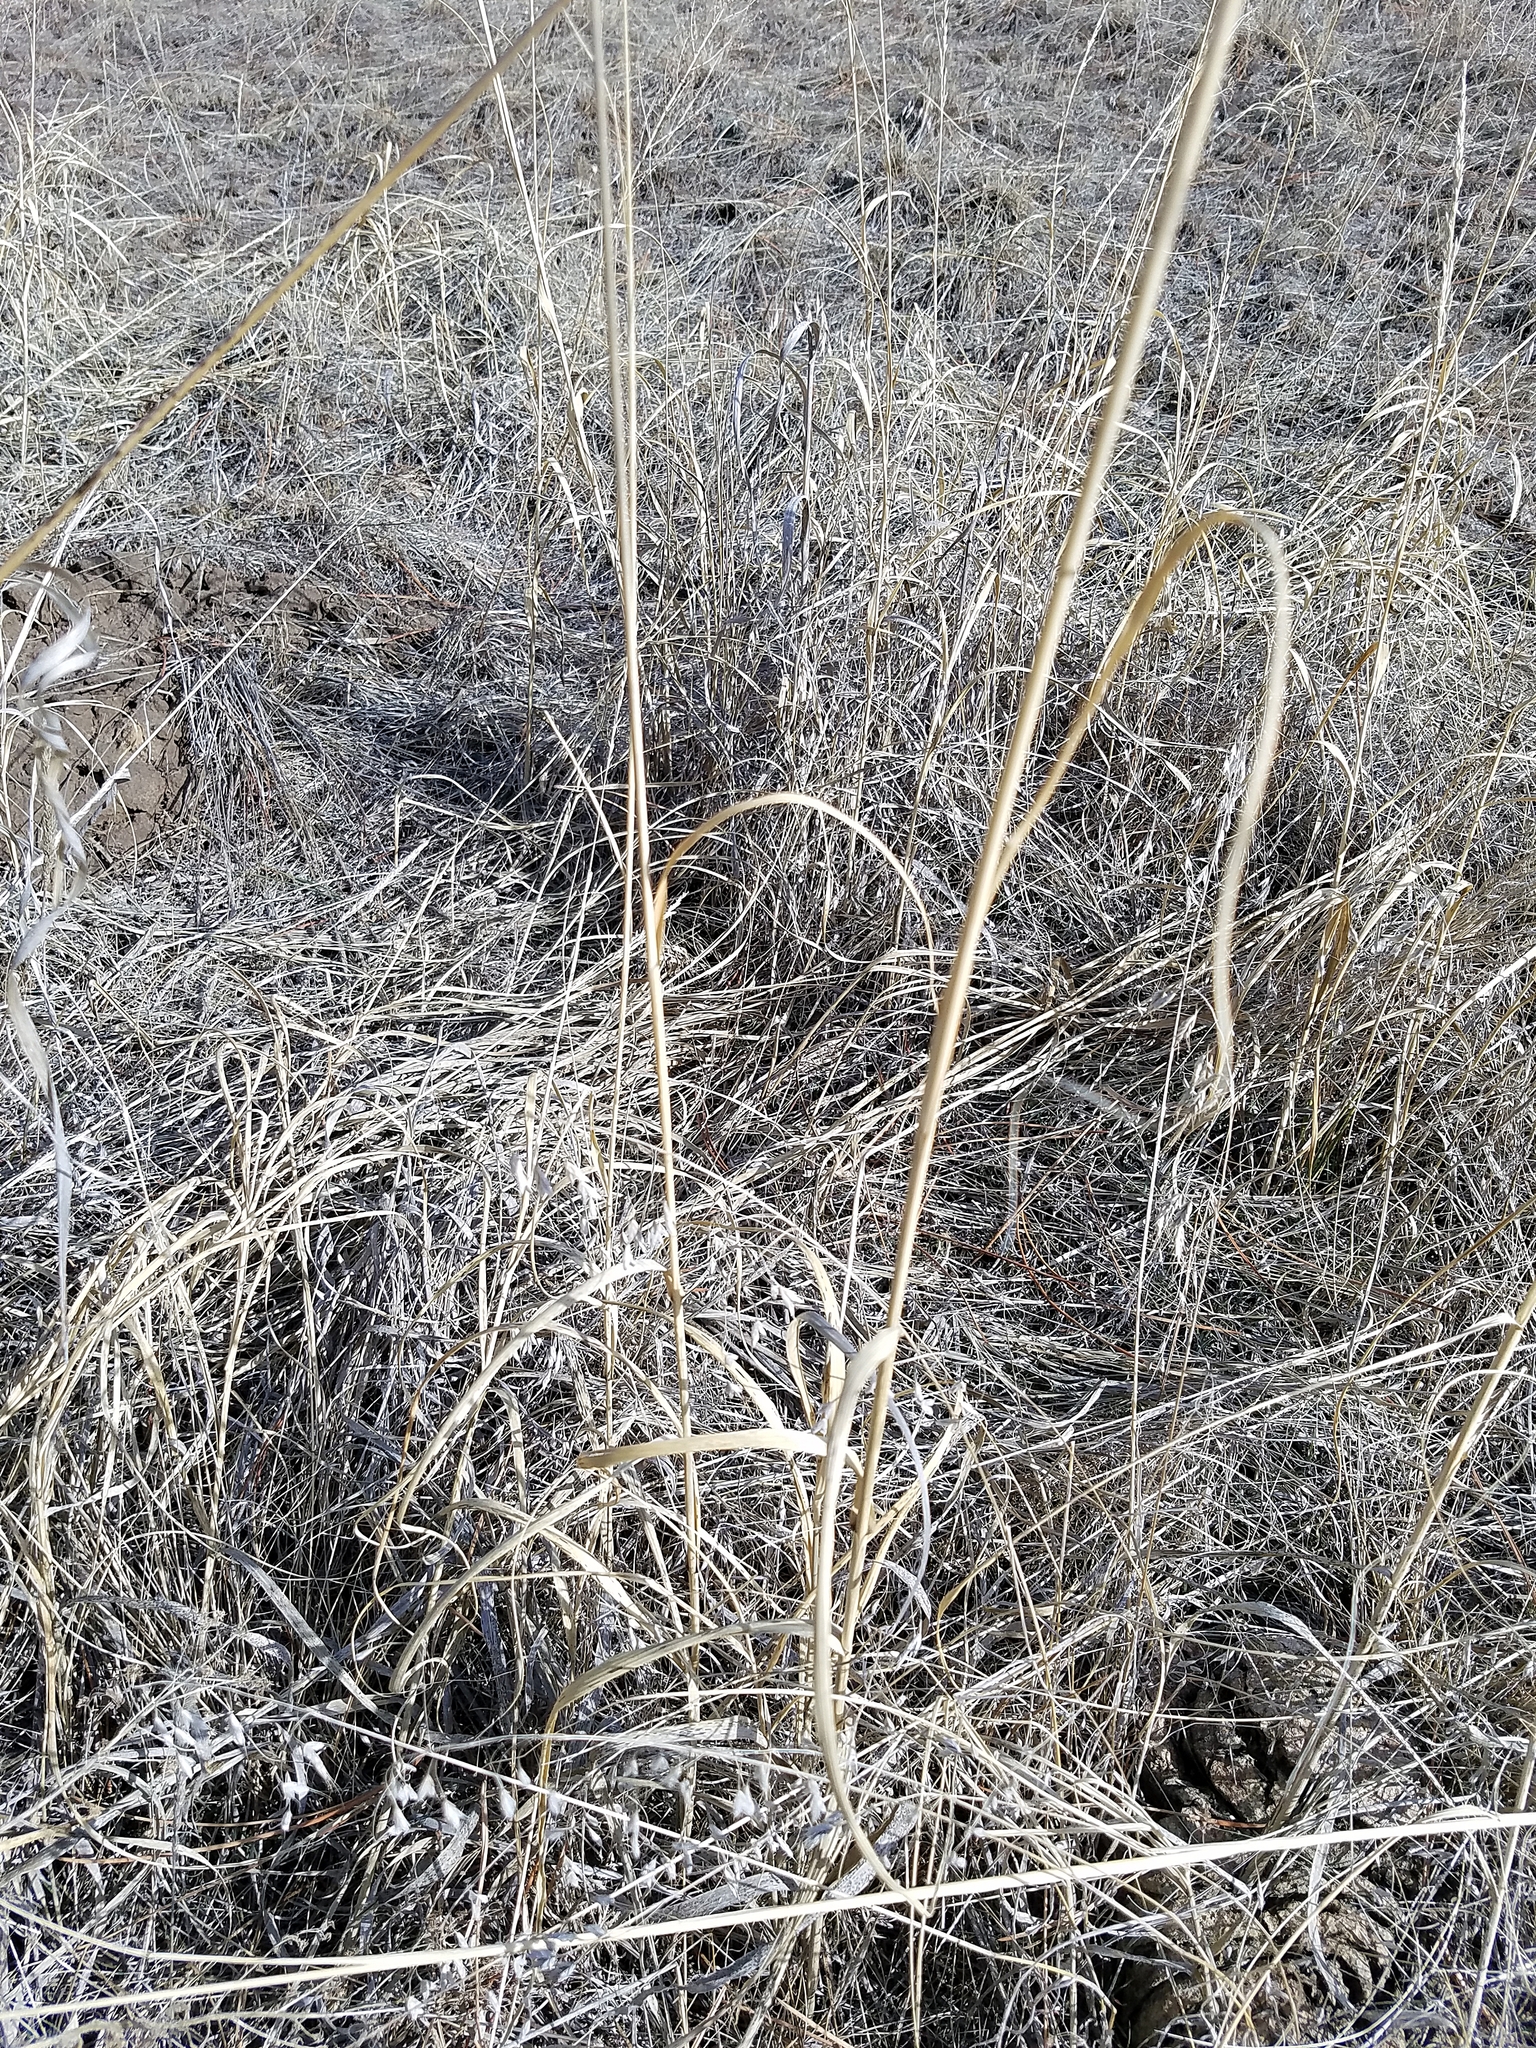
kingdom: Plantae
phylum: Tracheophyta
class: Liliopsida
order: Poales
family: Poaceae
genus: Sporobolus
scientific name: Sporobolus rigidus
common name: Prairie sandreed
